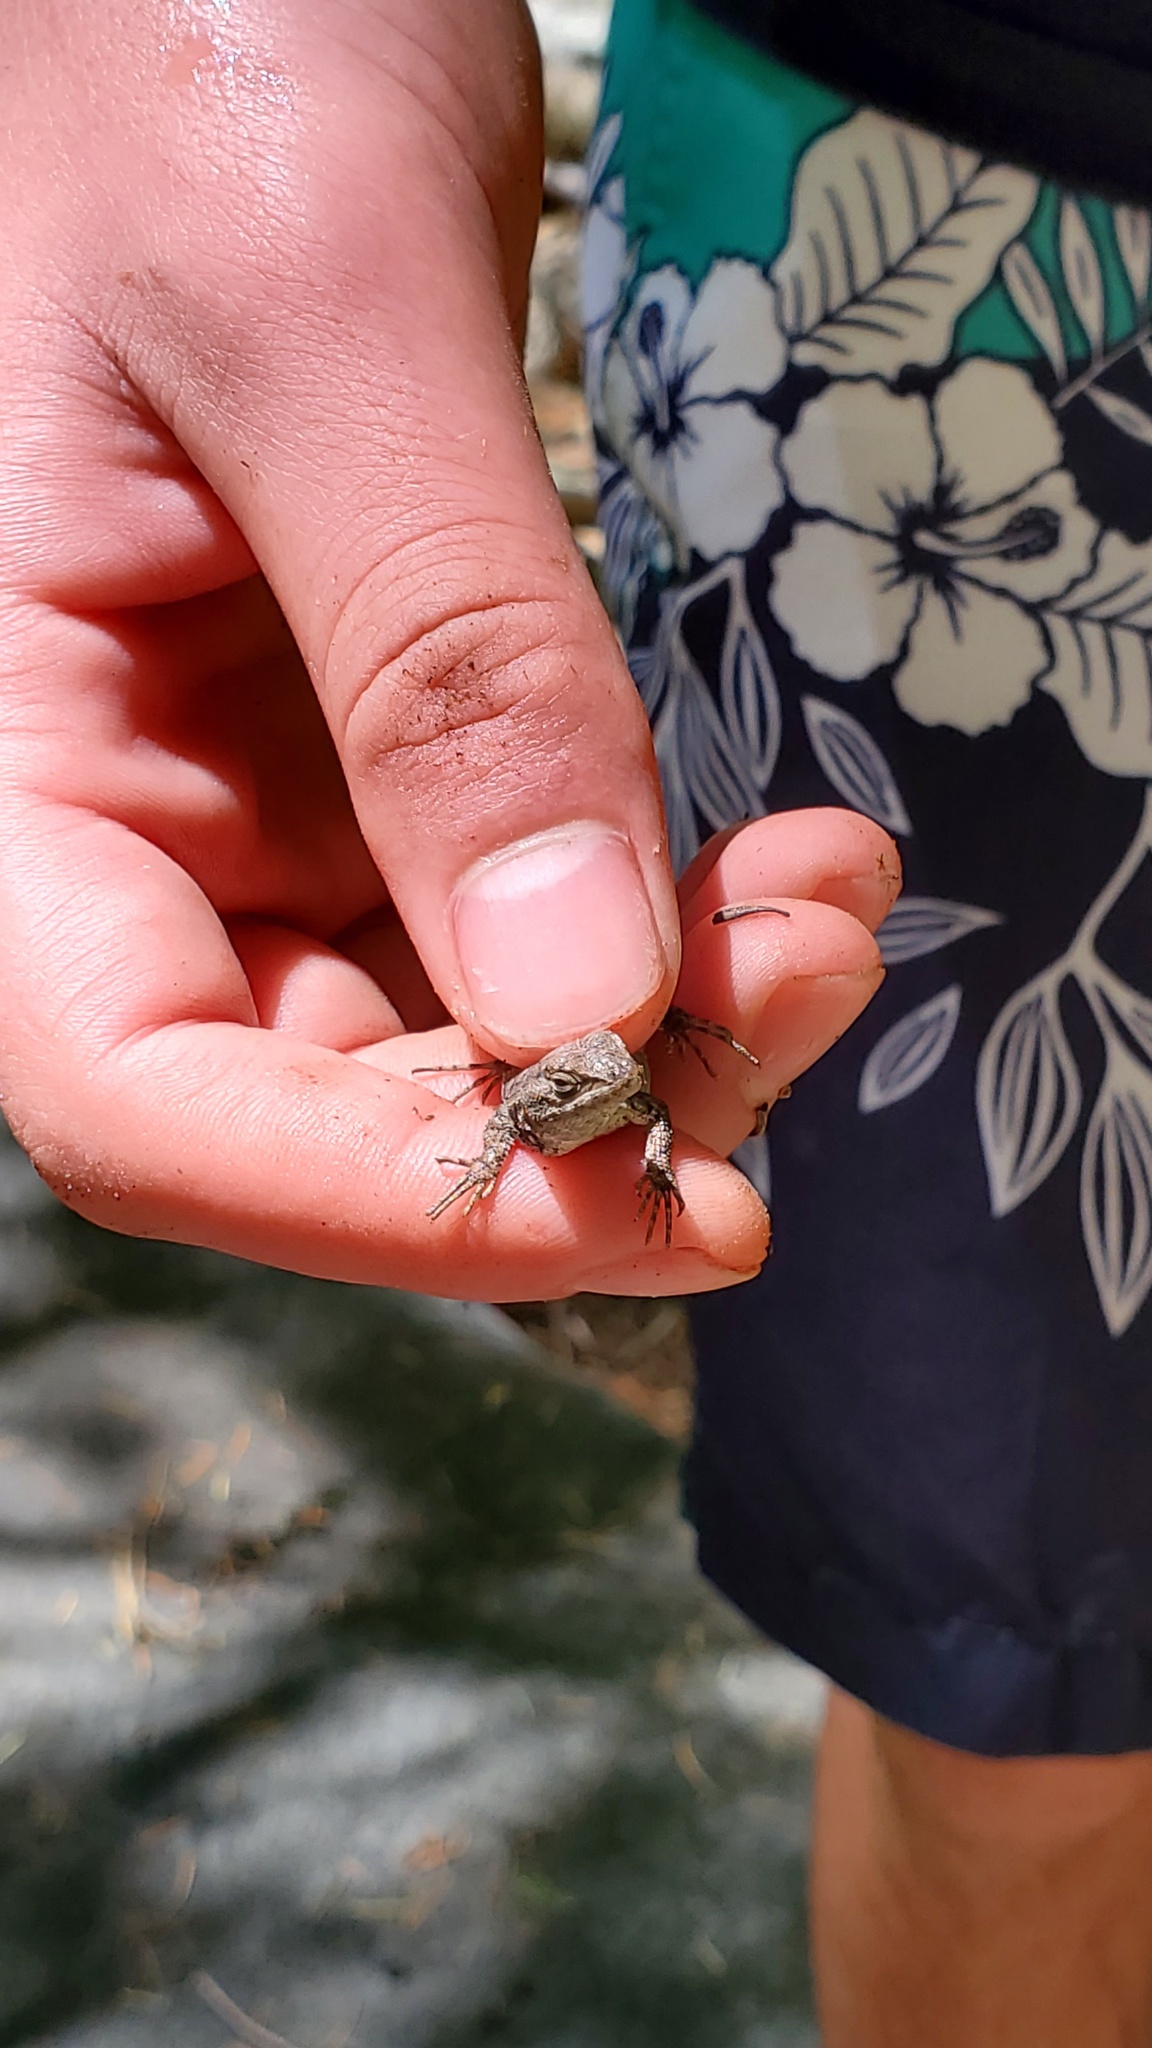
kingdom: Animalia
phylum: Chordata
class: Squamata
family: Phrynosomatidae
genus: Sceloporus
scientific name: Sceloporus occidentalis
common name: Western fence lizard
